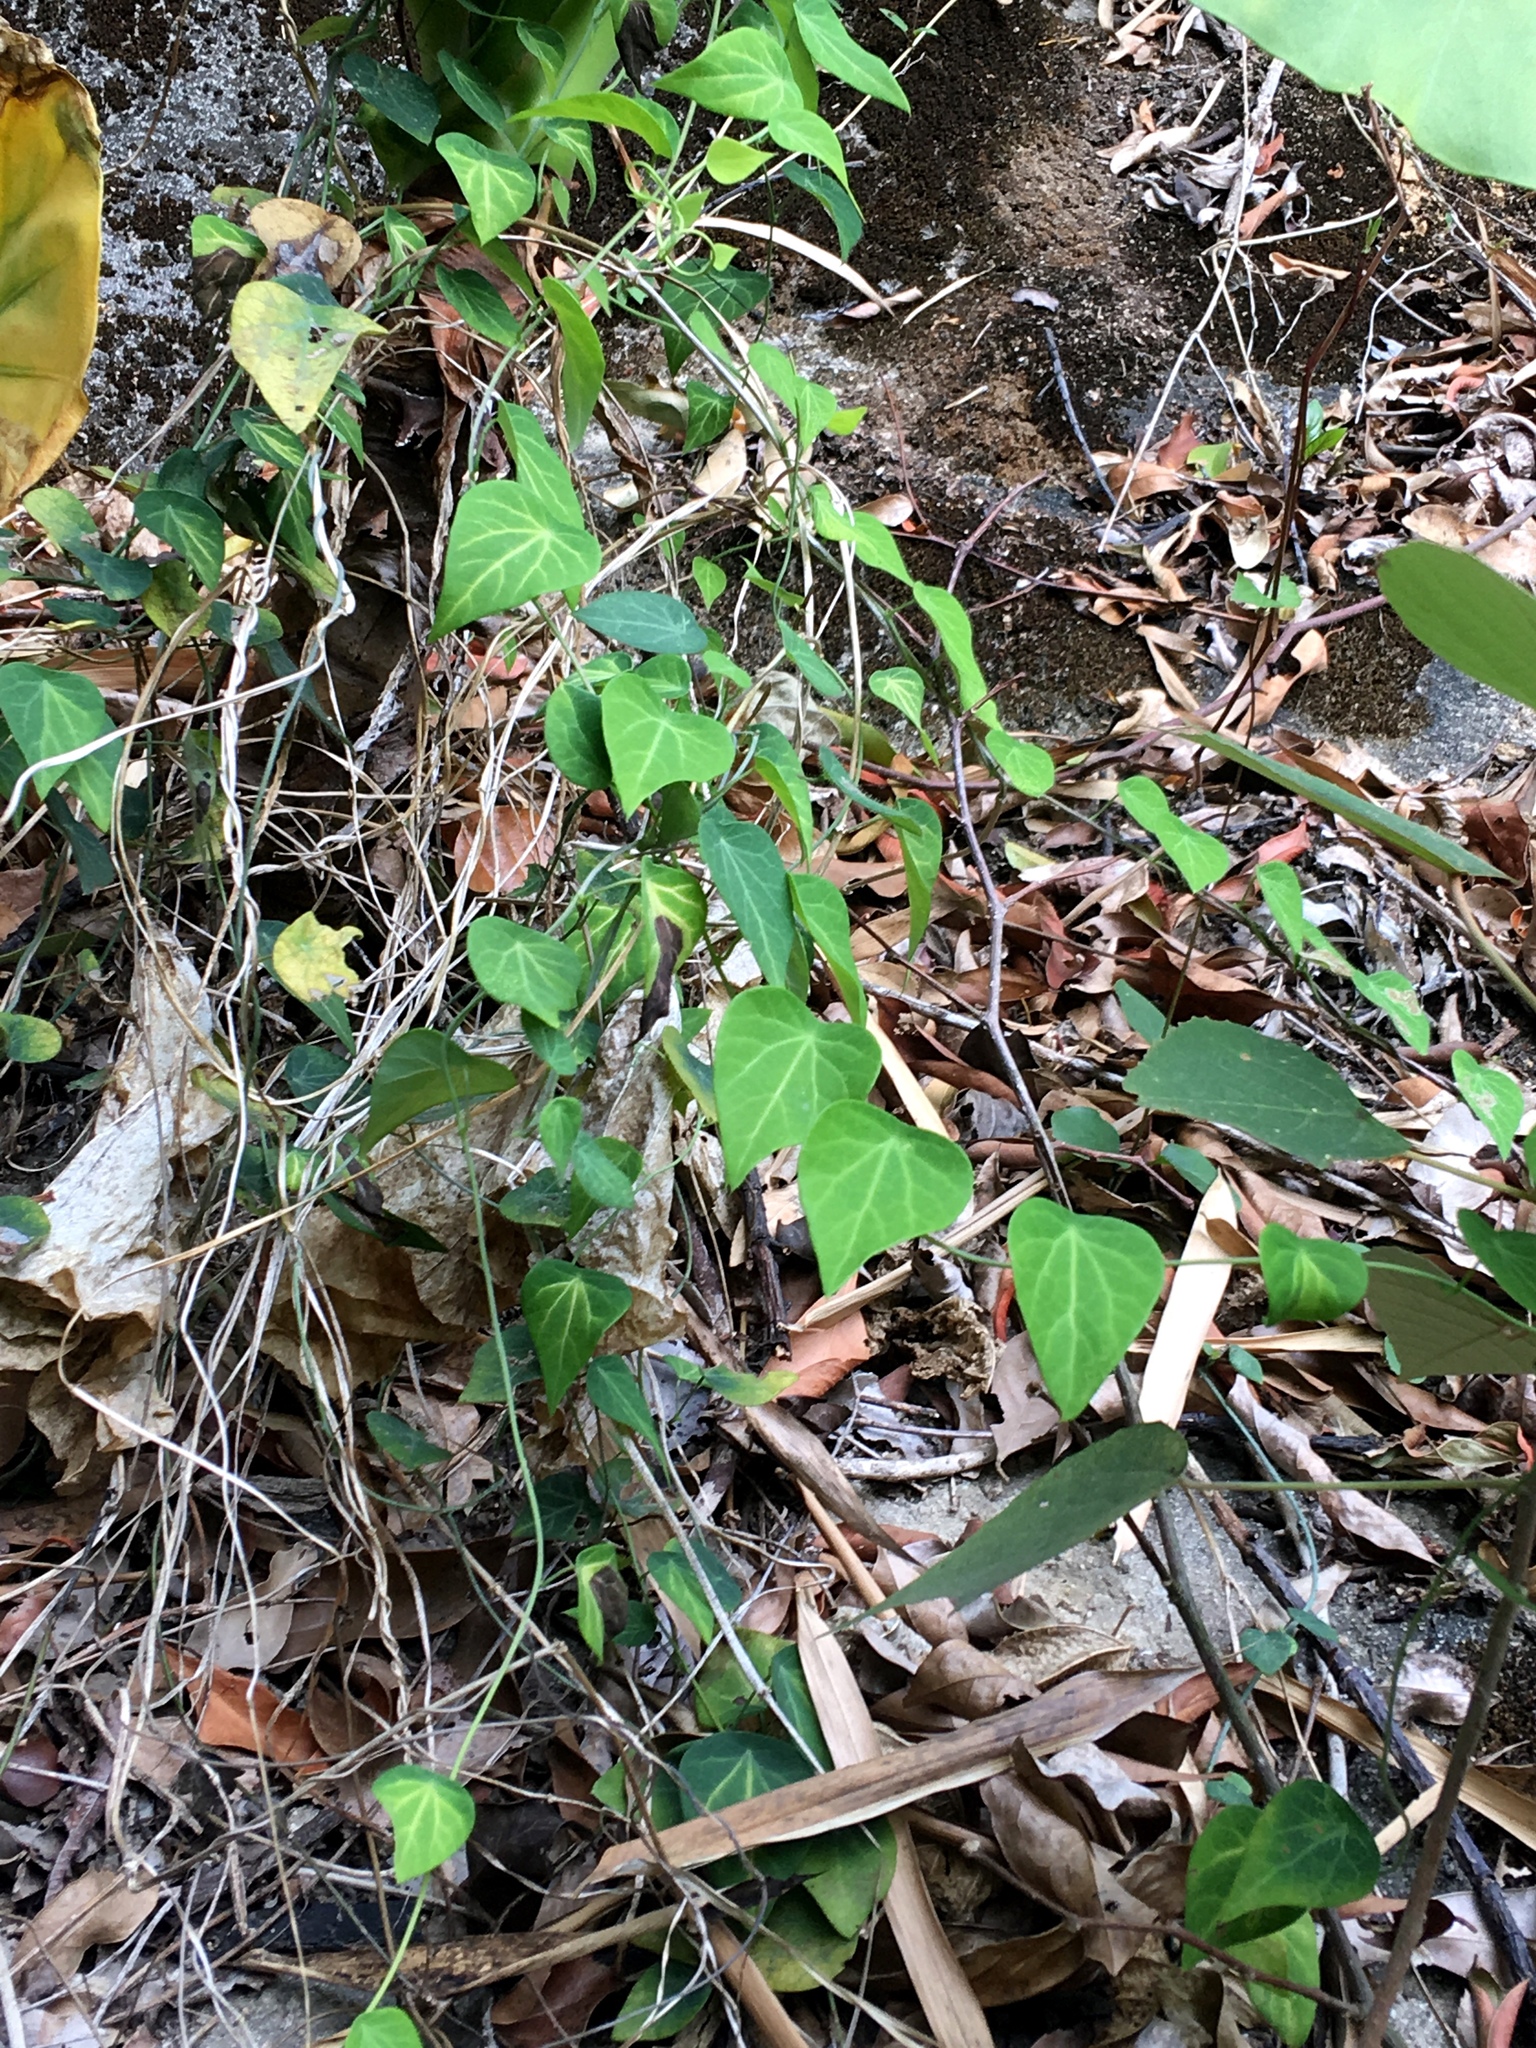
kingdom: Plantae
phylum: Tracheophyta
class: Magnoliopsida
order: Ranunculales
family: Menispermaceae
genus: Cyclea
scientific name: Cyclea barbata
